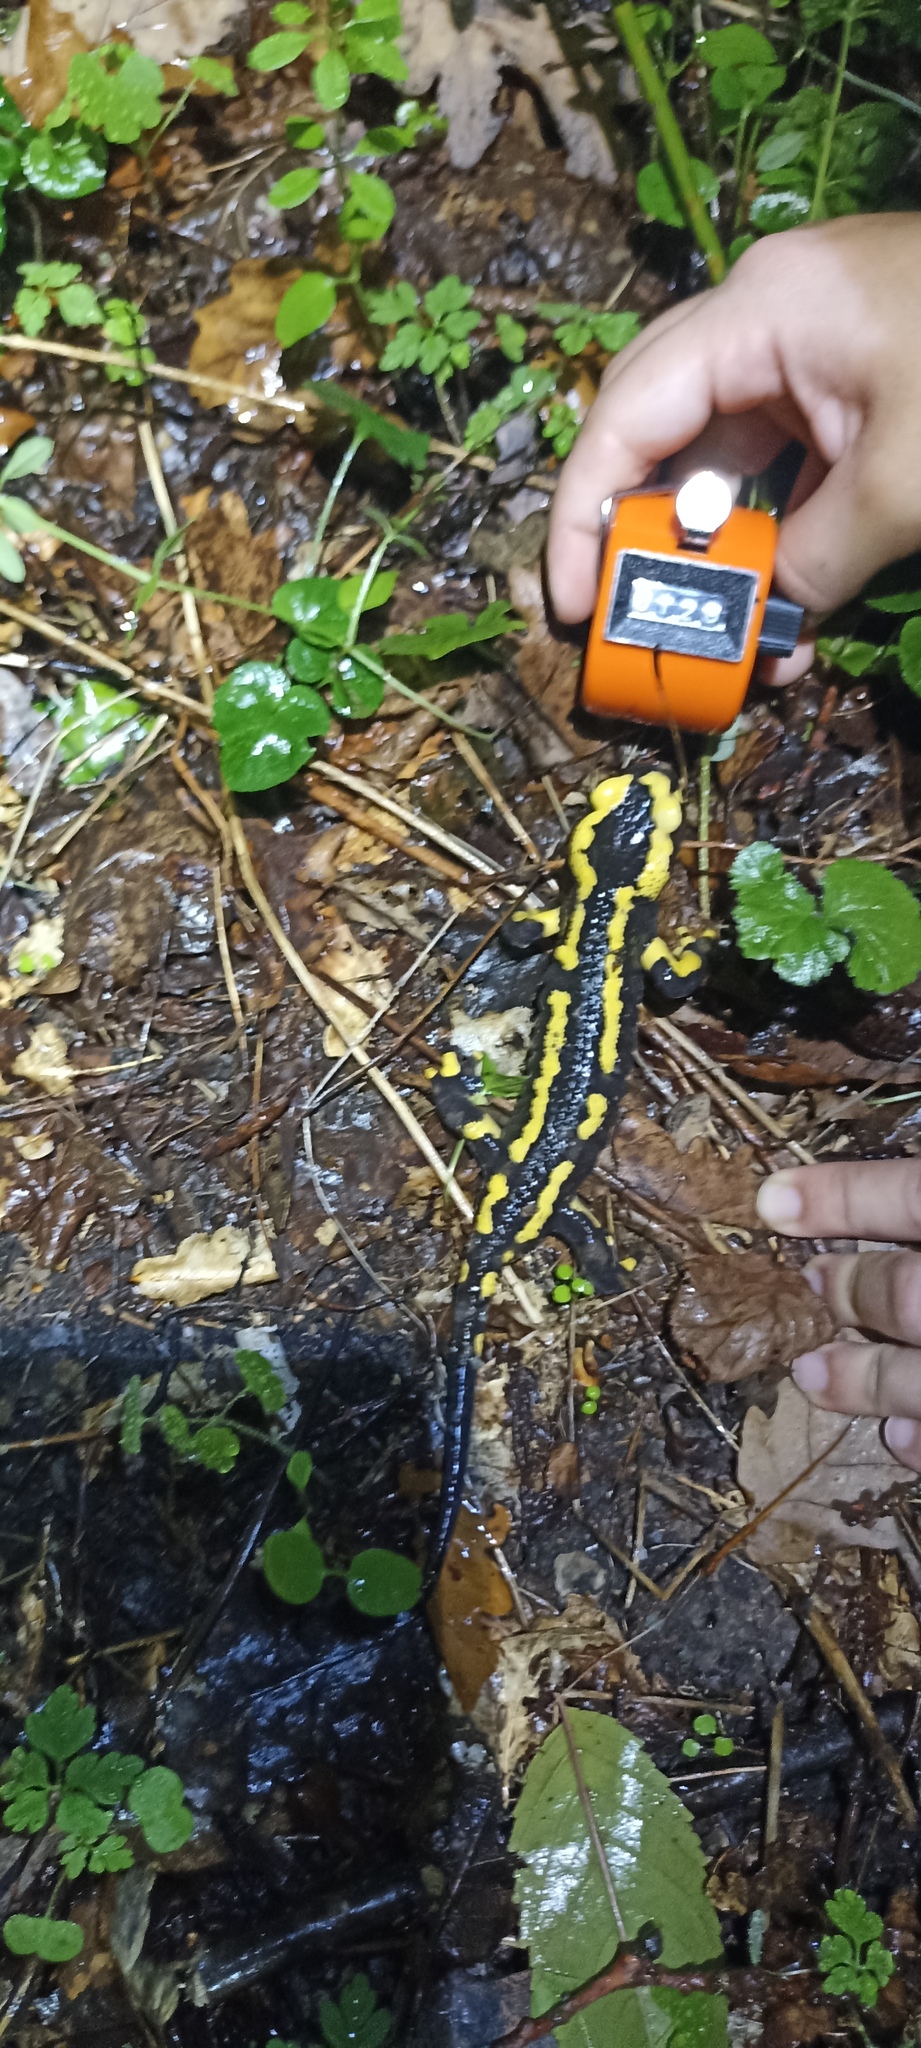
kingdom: Animalia
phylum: Chordata
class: Amphibia
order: Caudata
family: Salamandridae
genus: Salamandra
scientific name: Salamandra salamandra
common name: Fire salamander
